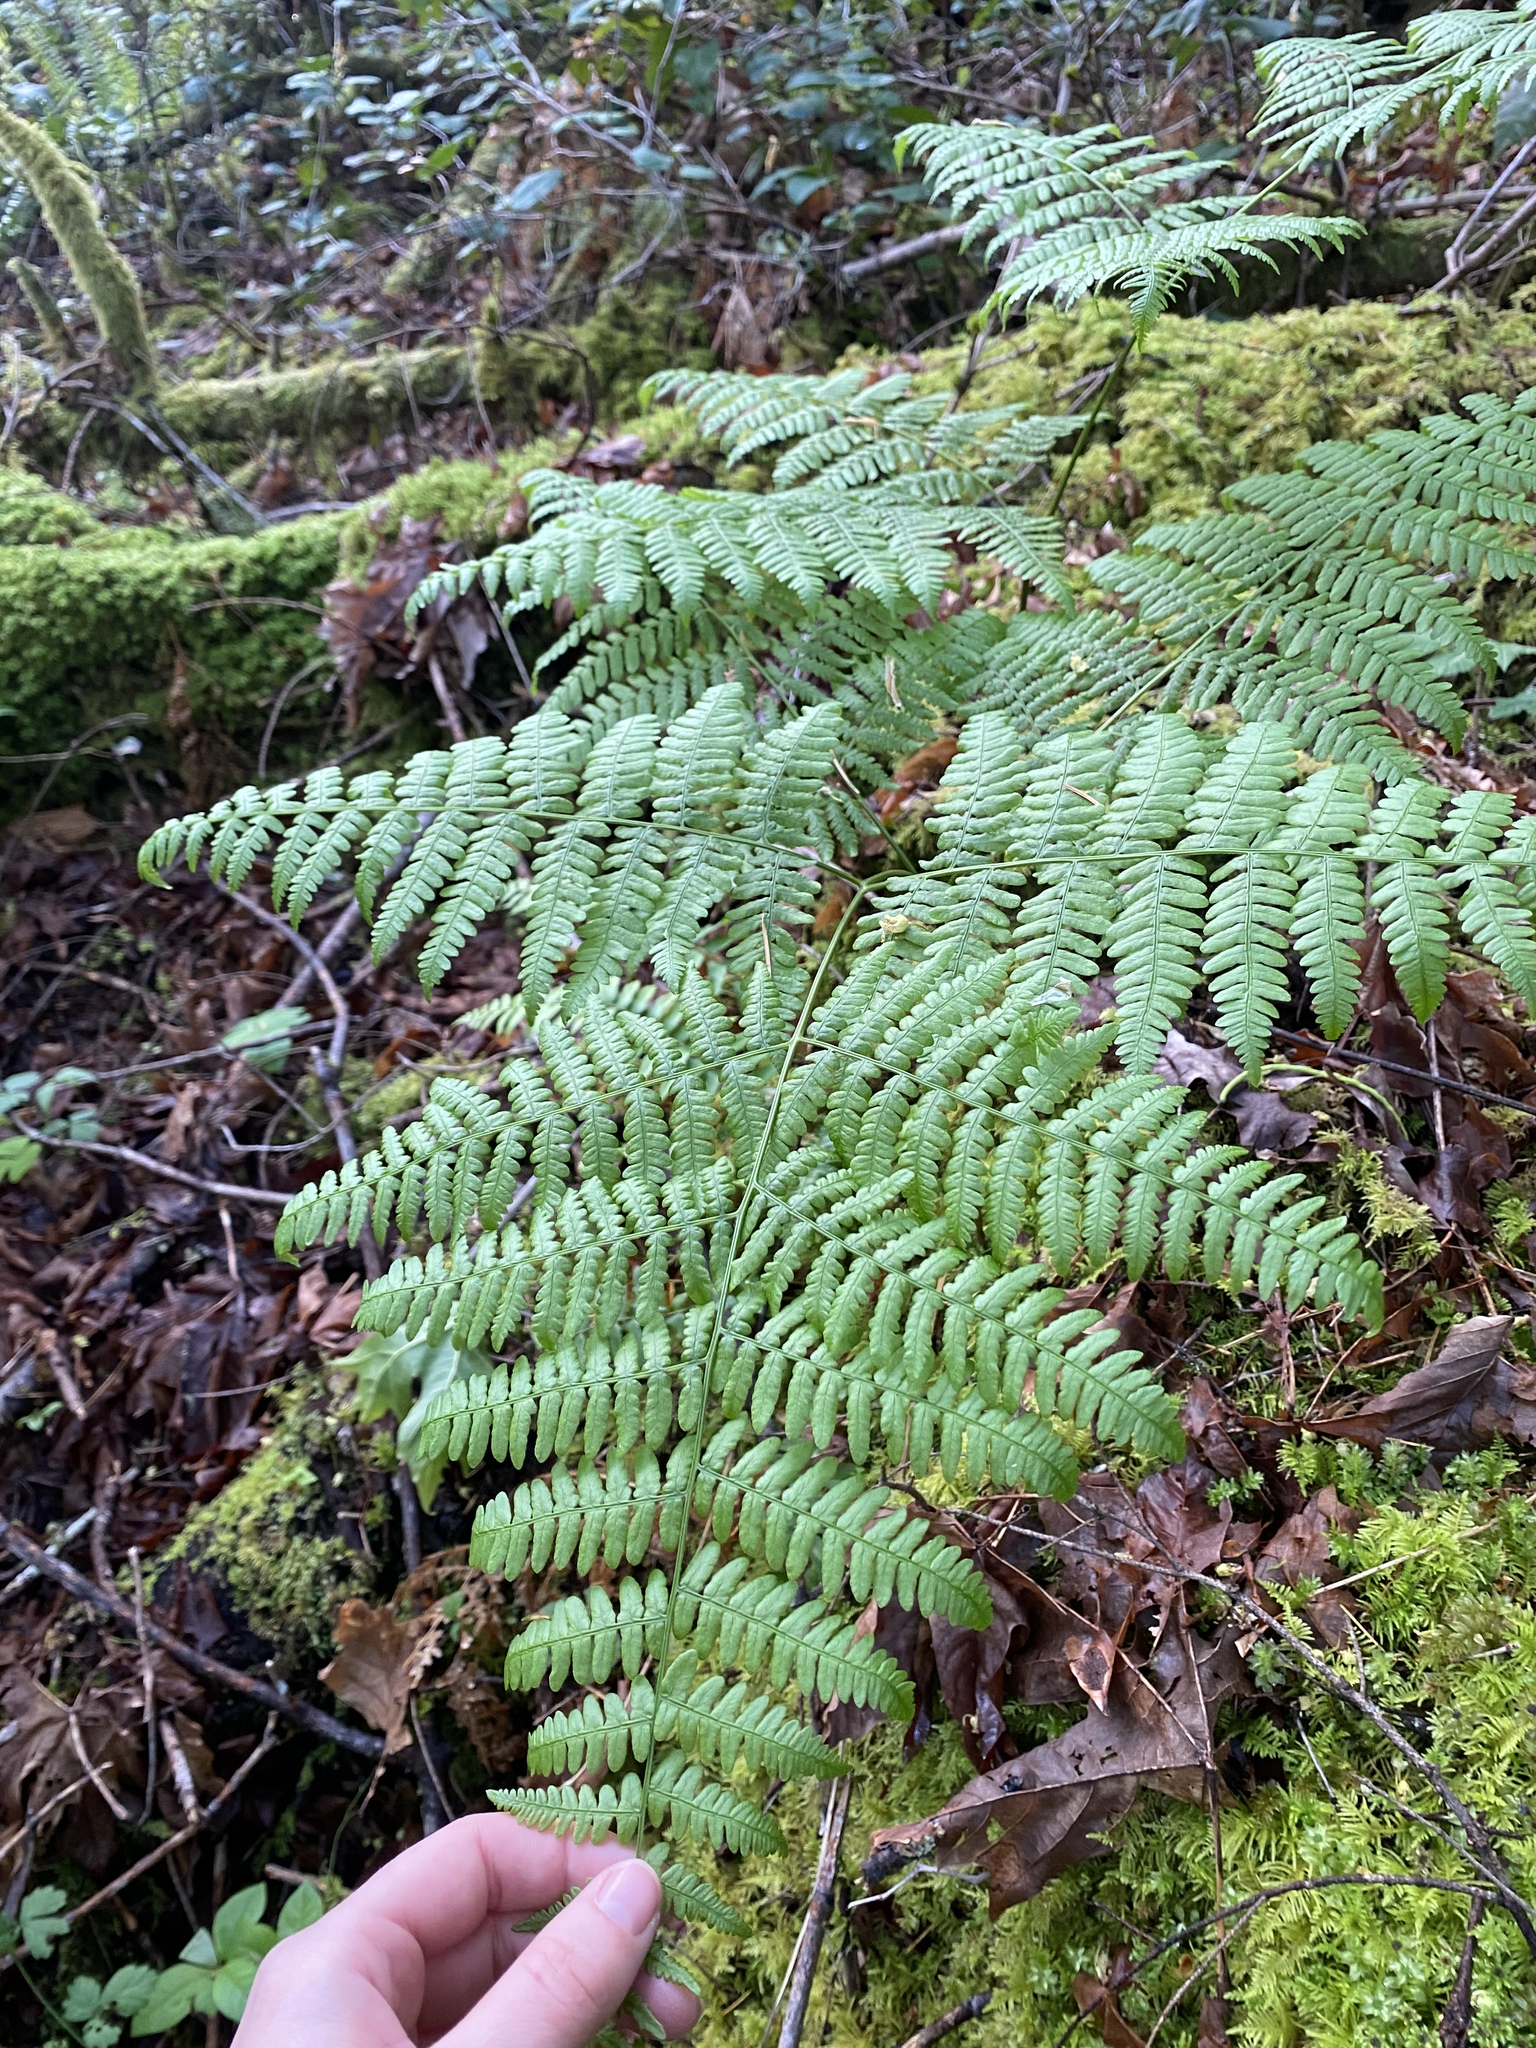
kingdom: Plantae
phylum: Tracheophyta
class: Polypodiopsida
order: Polypodiales
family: Dennstaedtiaceae
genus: Pteridium
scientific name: Pteridium aquilinum
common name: Bracken
